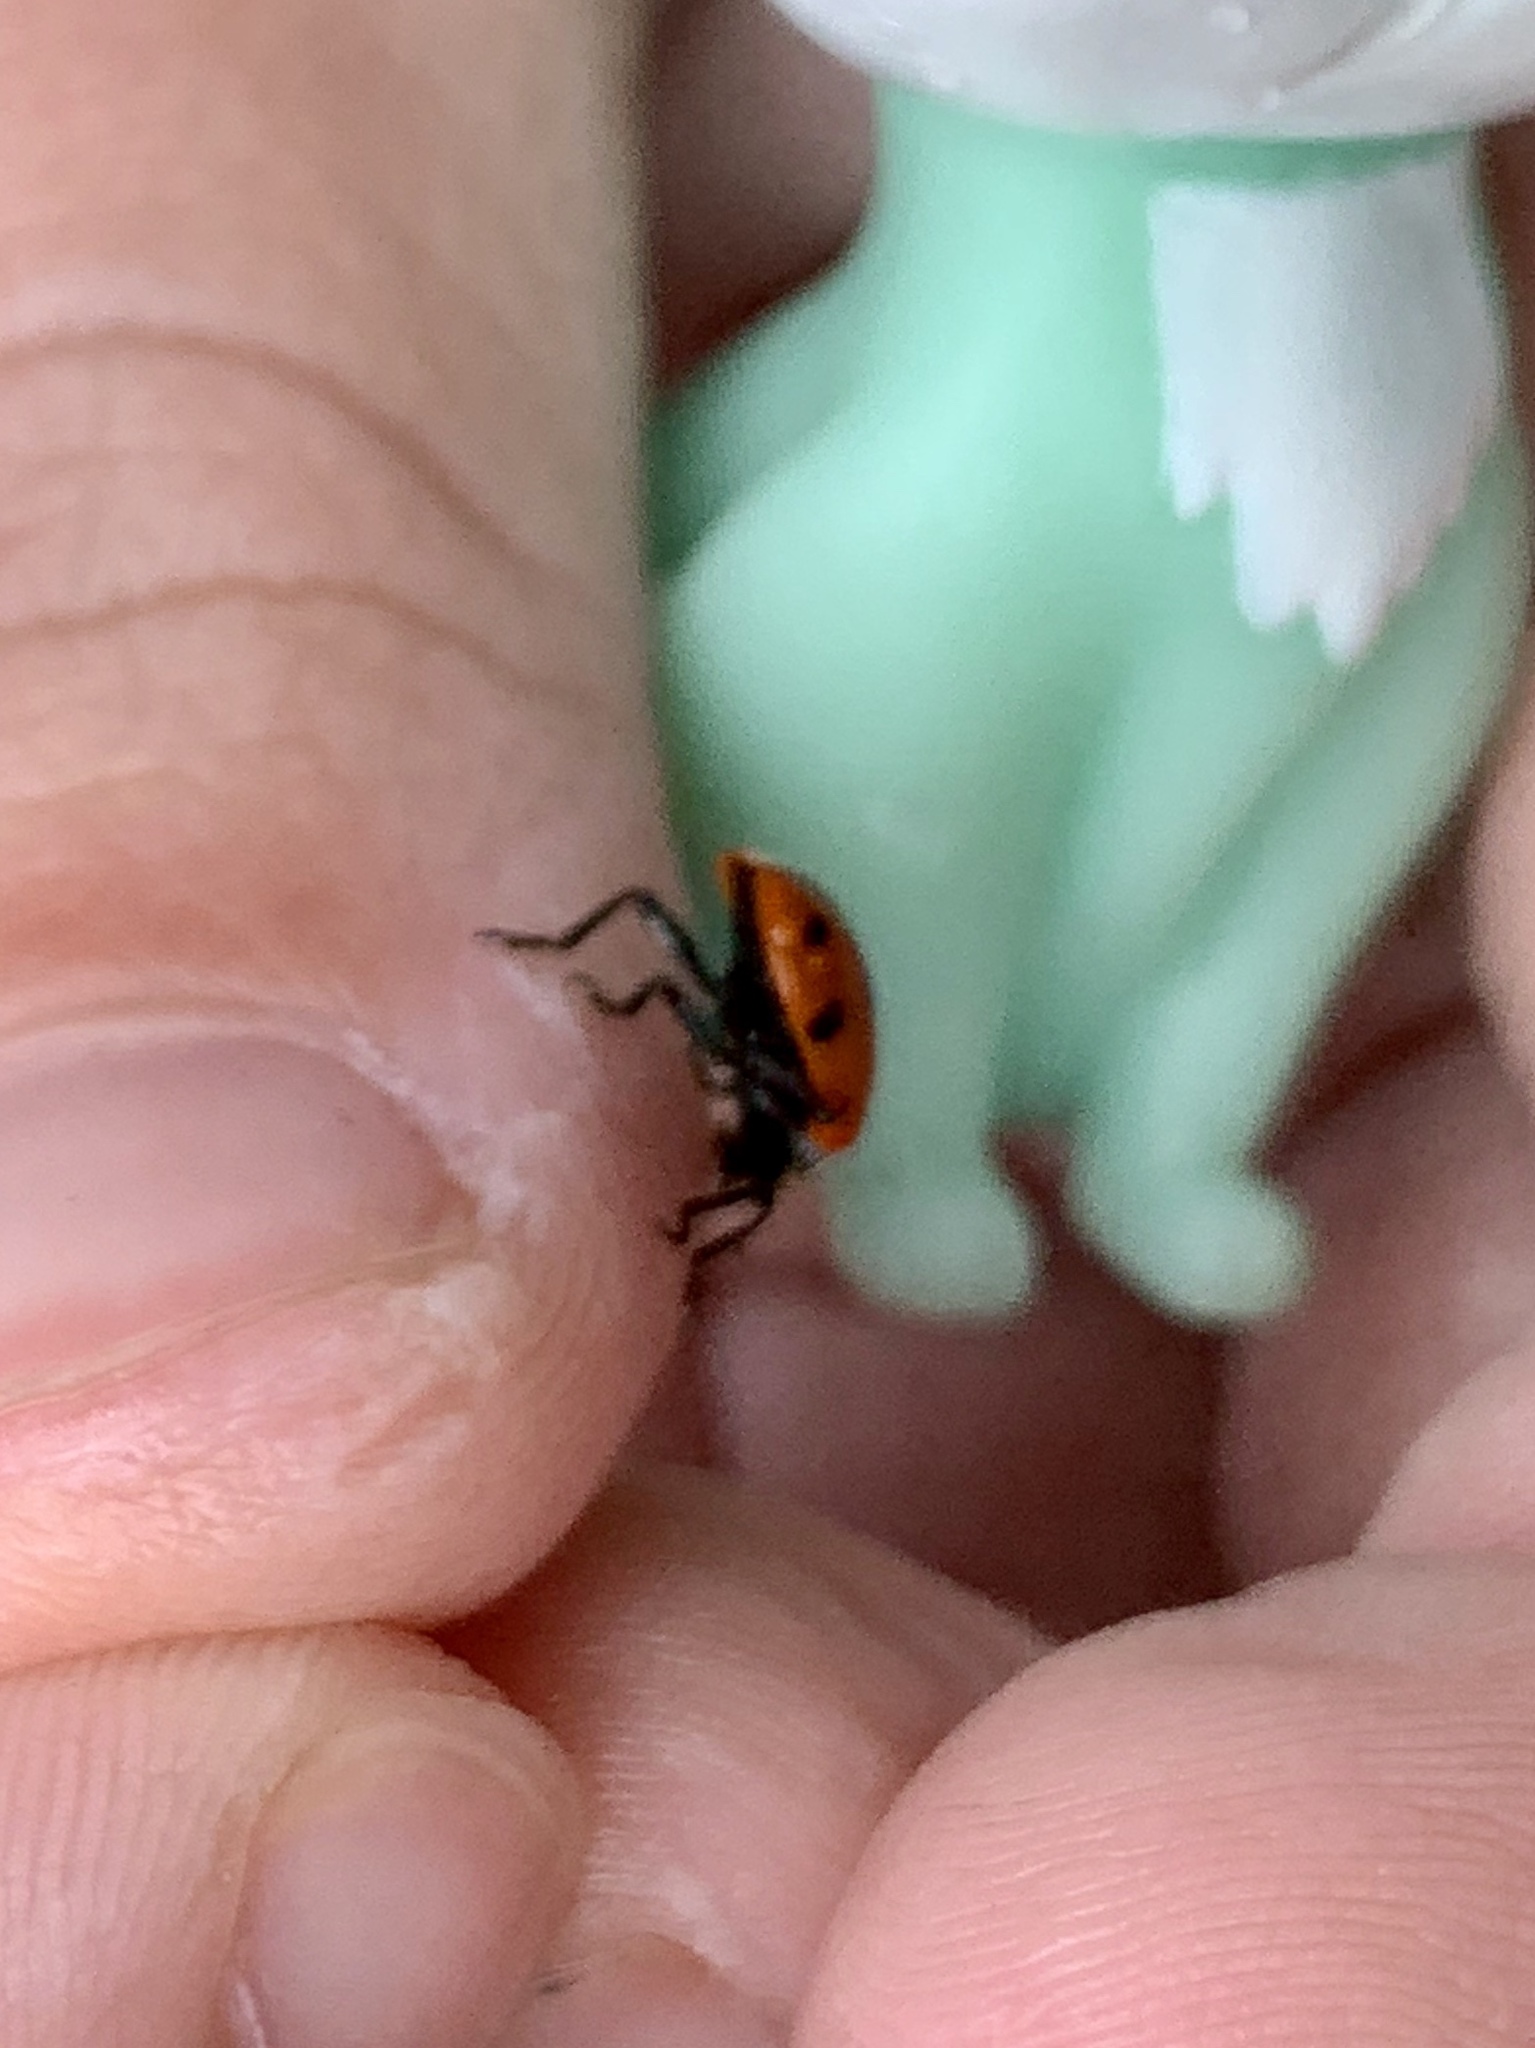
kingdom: Animalia
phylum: Arthropoda
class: Insecta
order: Coleoptera
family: Coccinellidae
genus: Hippodamia
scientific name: Hippodamia convergens
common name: Convergent lady beetle
